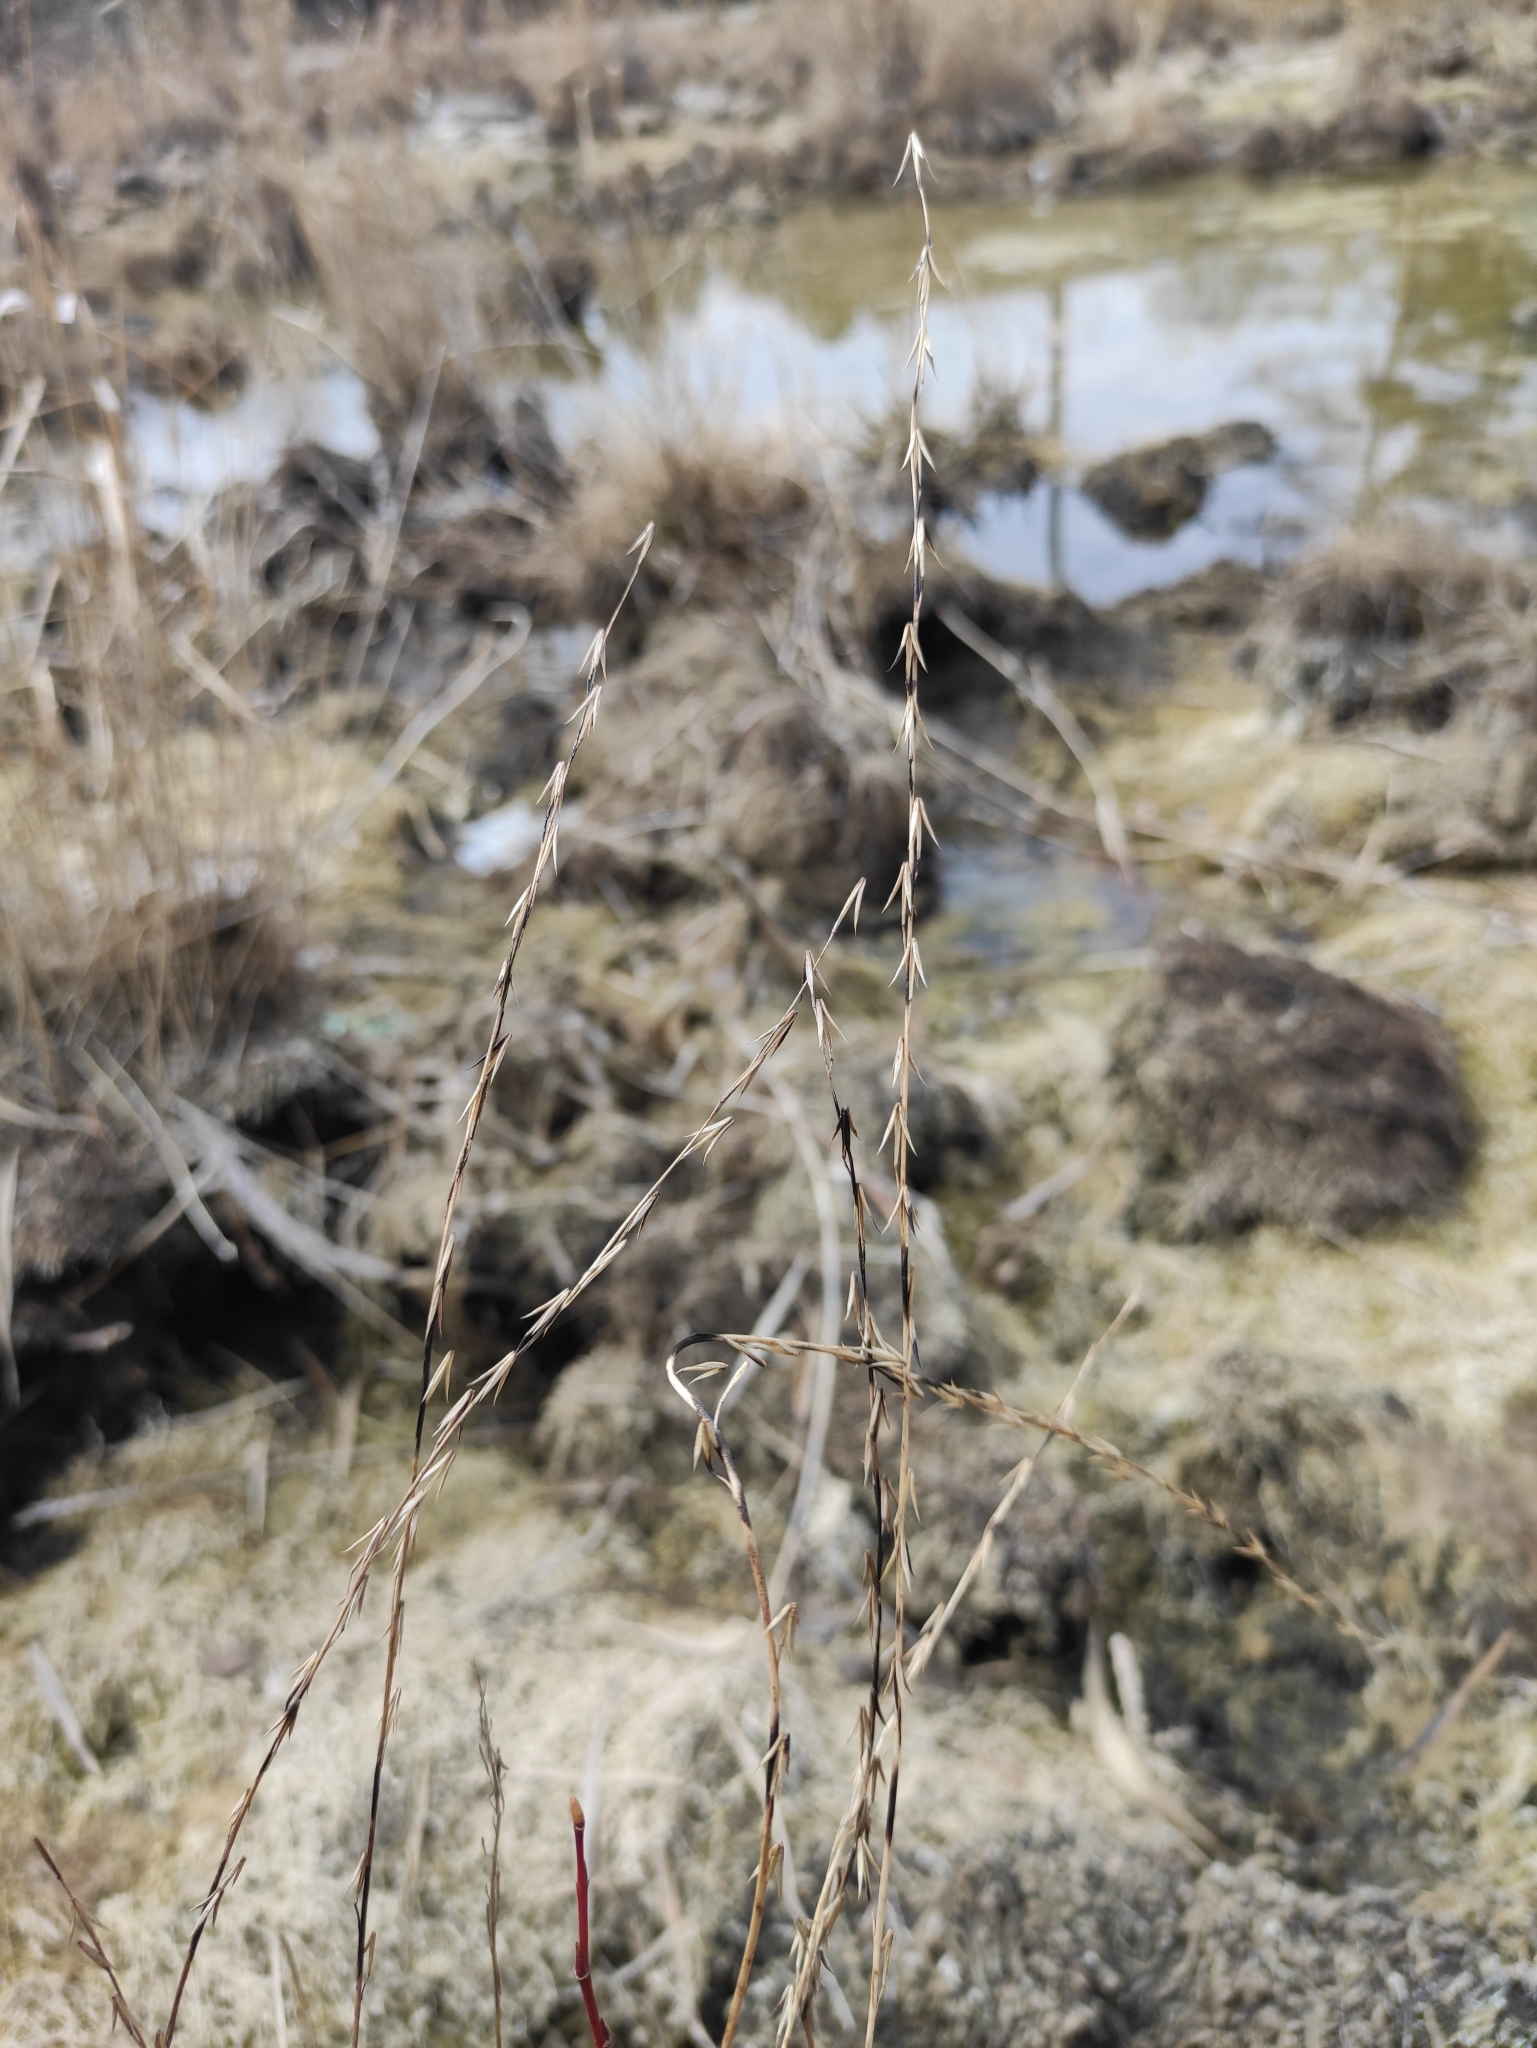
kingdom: Plantae
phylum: Tracheophyta
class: Liliopsida
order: Alismatales
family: Juncaginaceae
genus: Triglochin
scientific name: Triglochin palustris
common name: Marsh arrowgrass
